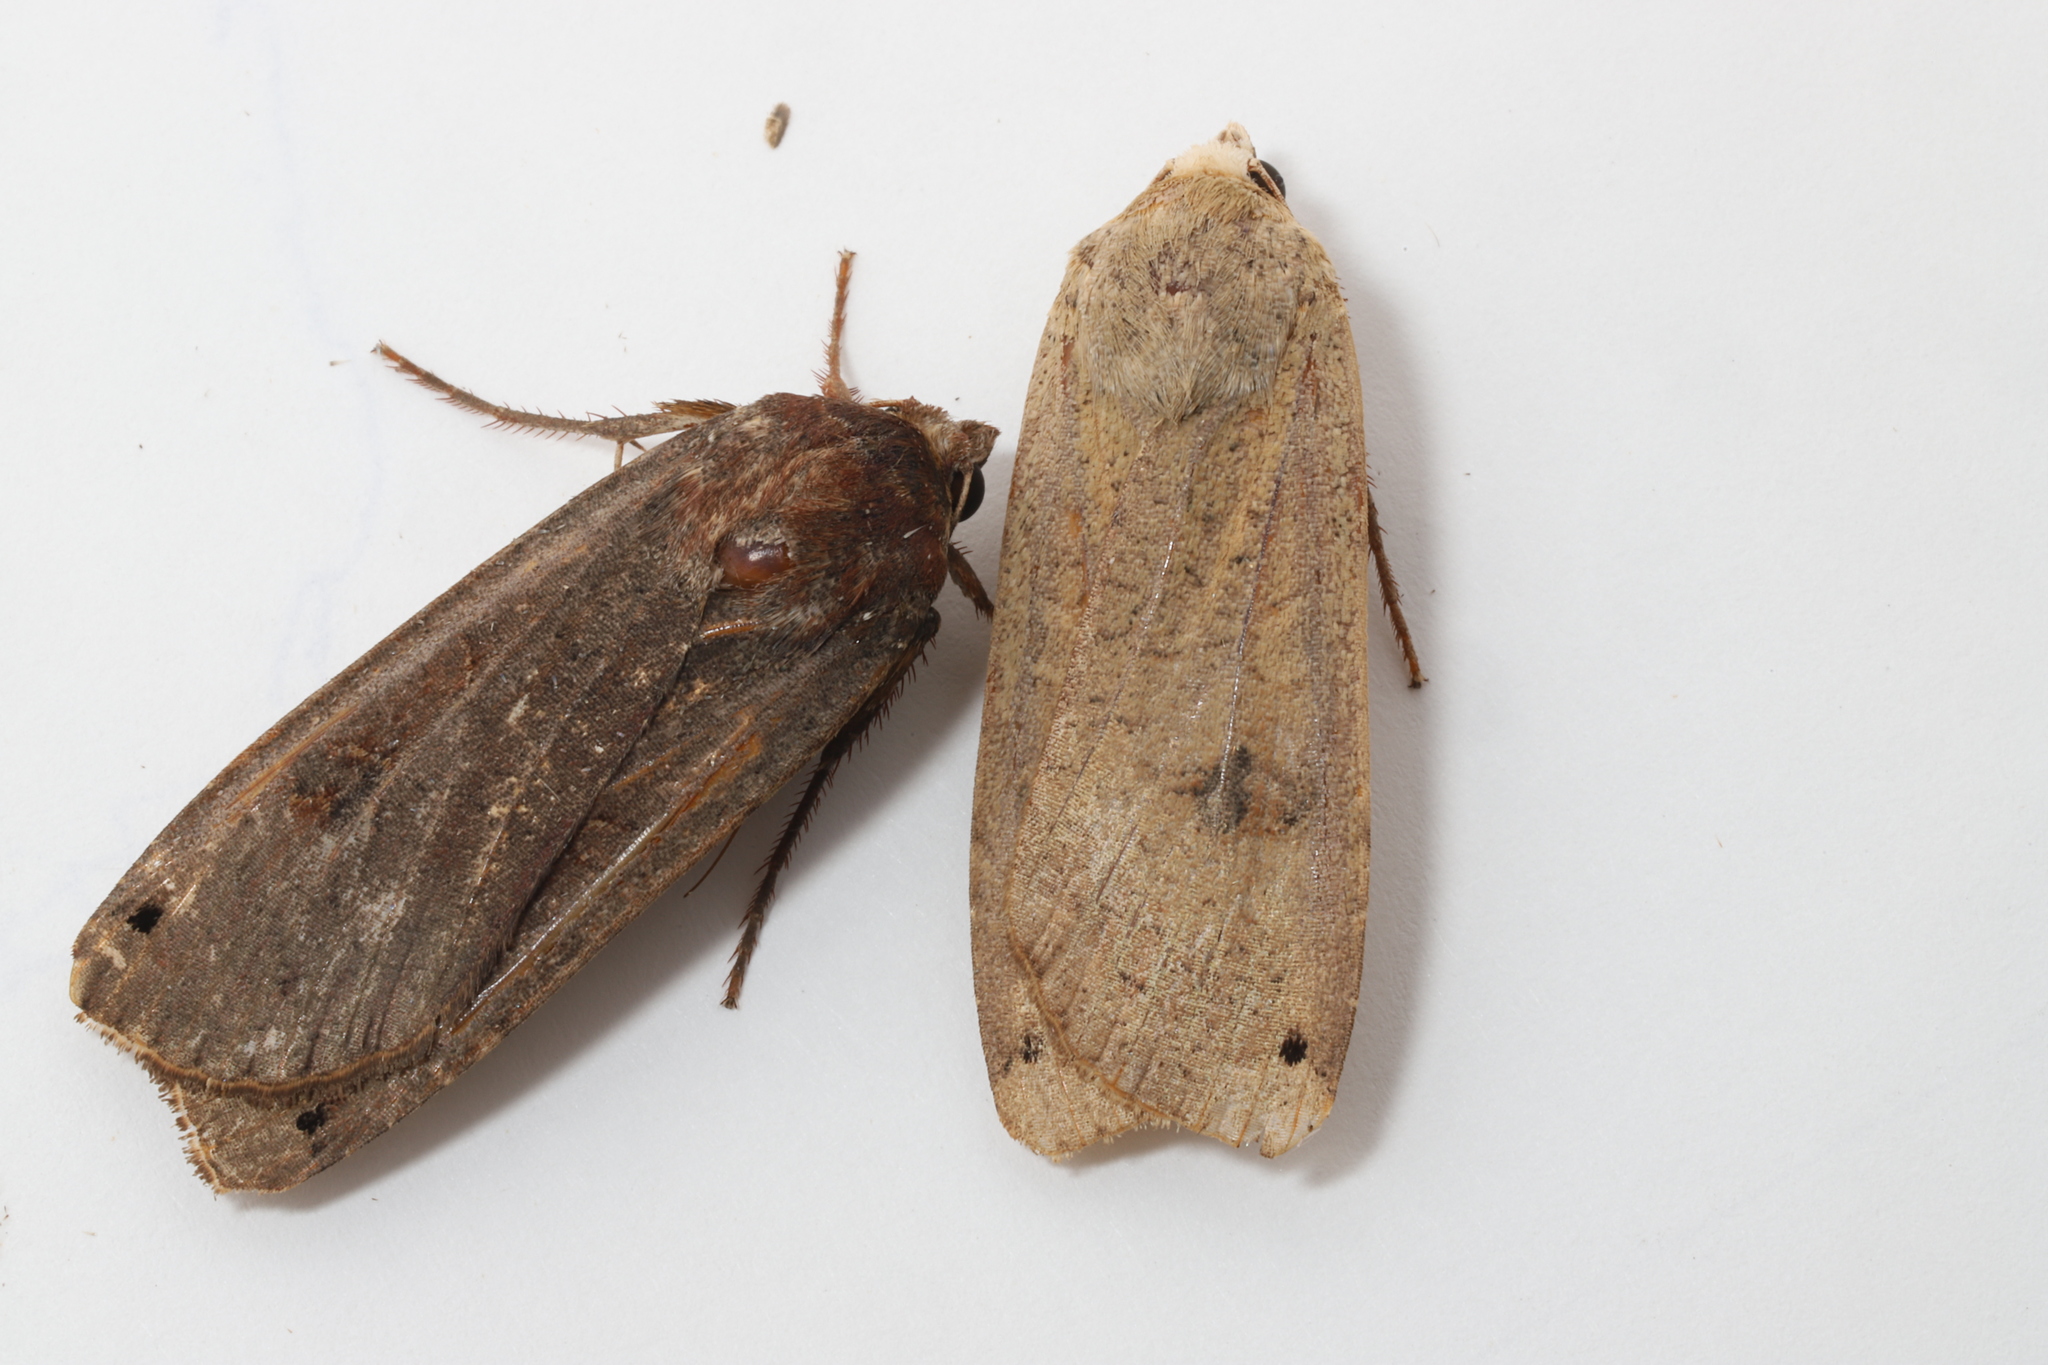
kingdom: Animalia
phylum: Arthropoda
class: Insecta
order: Lepidoptera
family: Noctuidae
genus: Noctua
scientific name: Noctua pronuba
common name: Large yellow underwing
